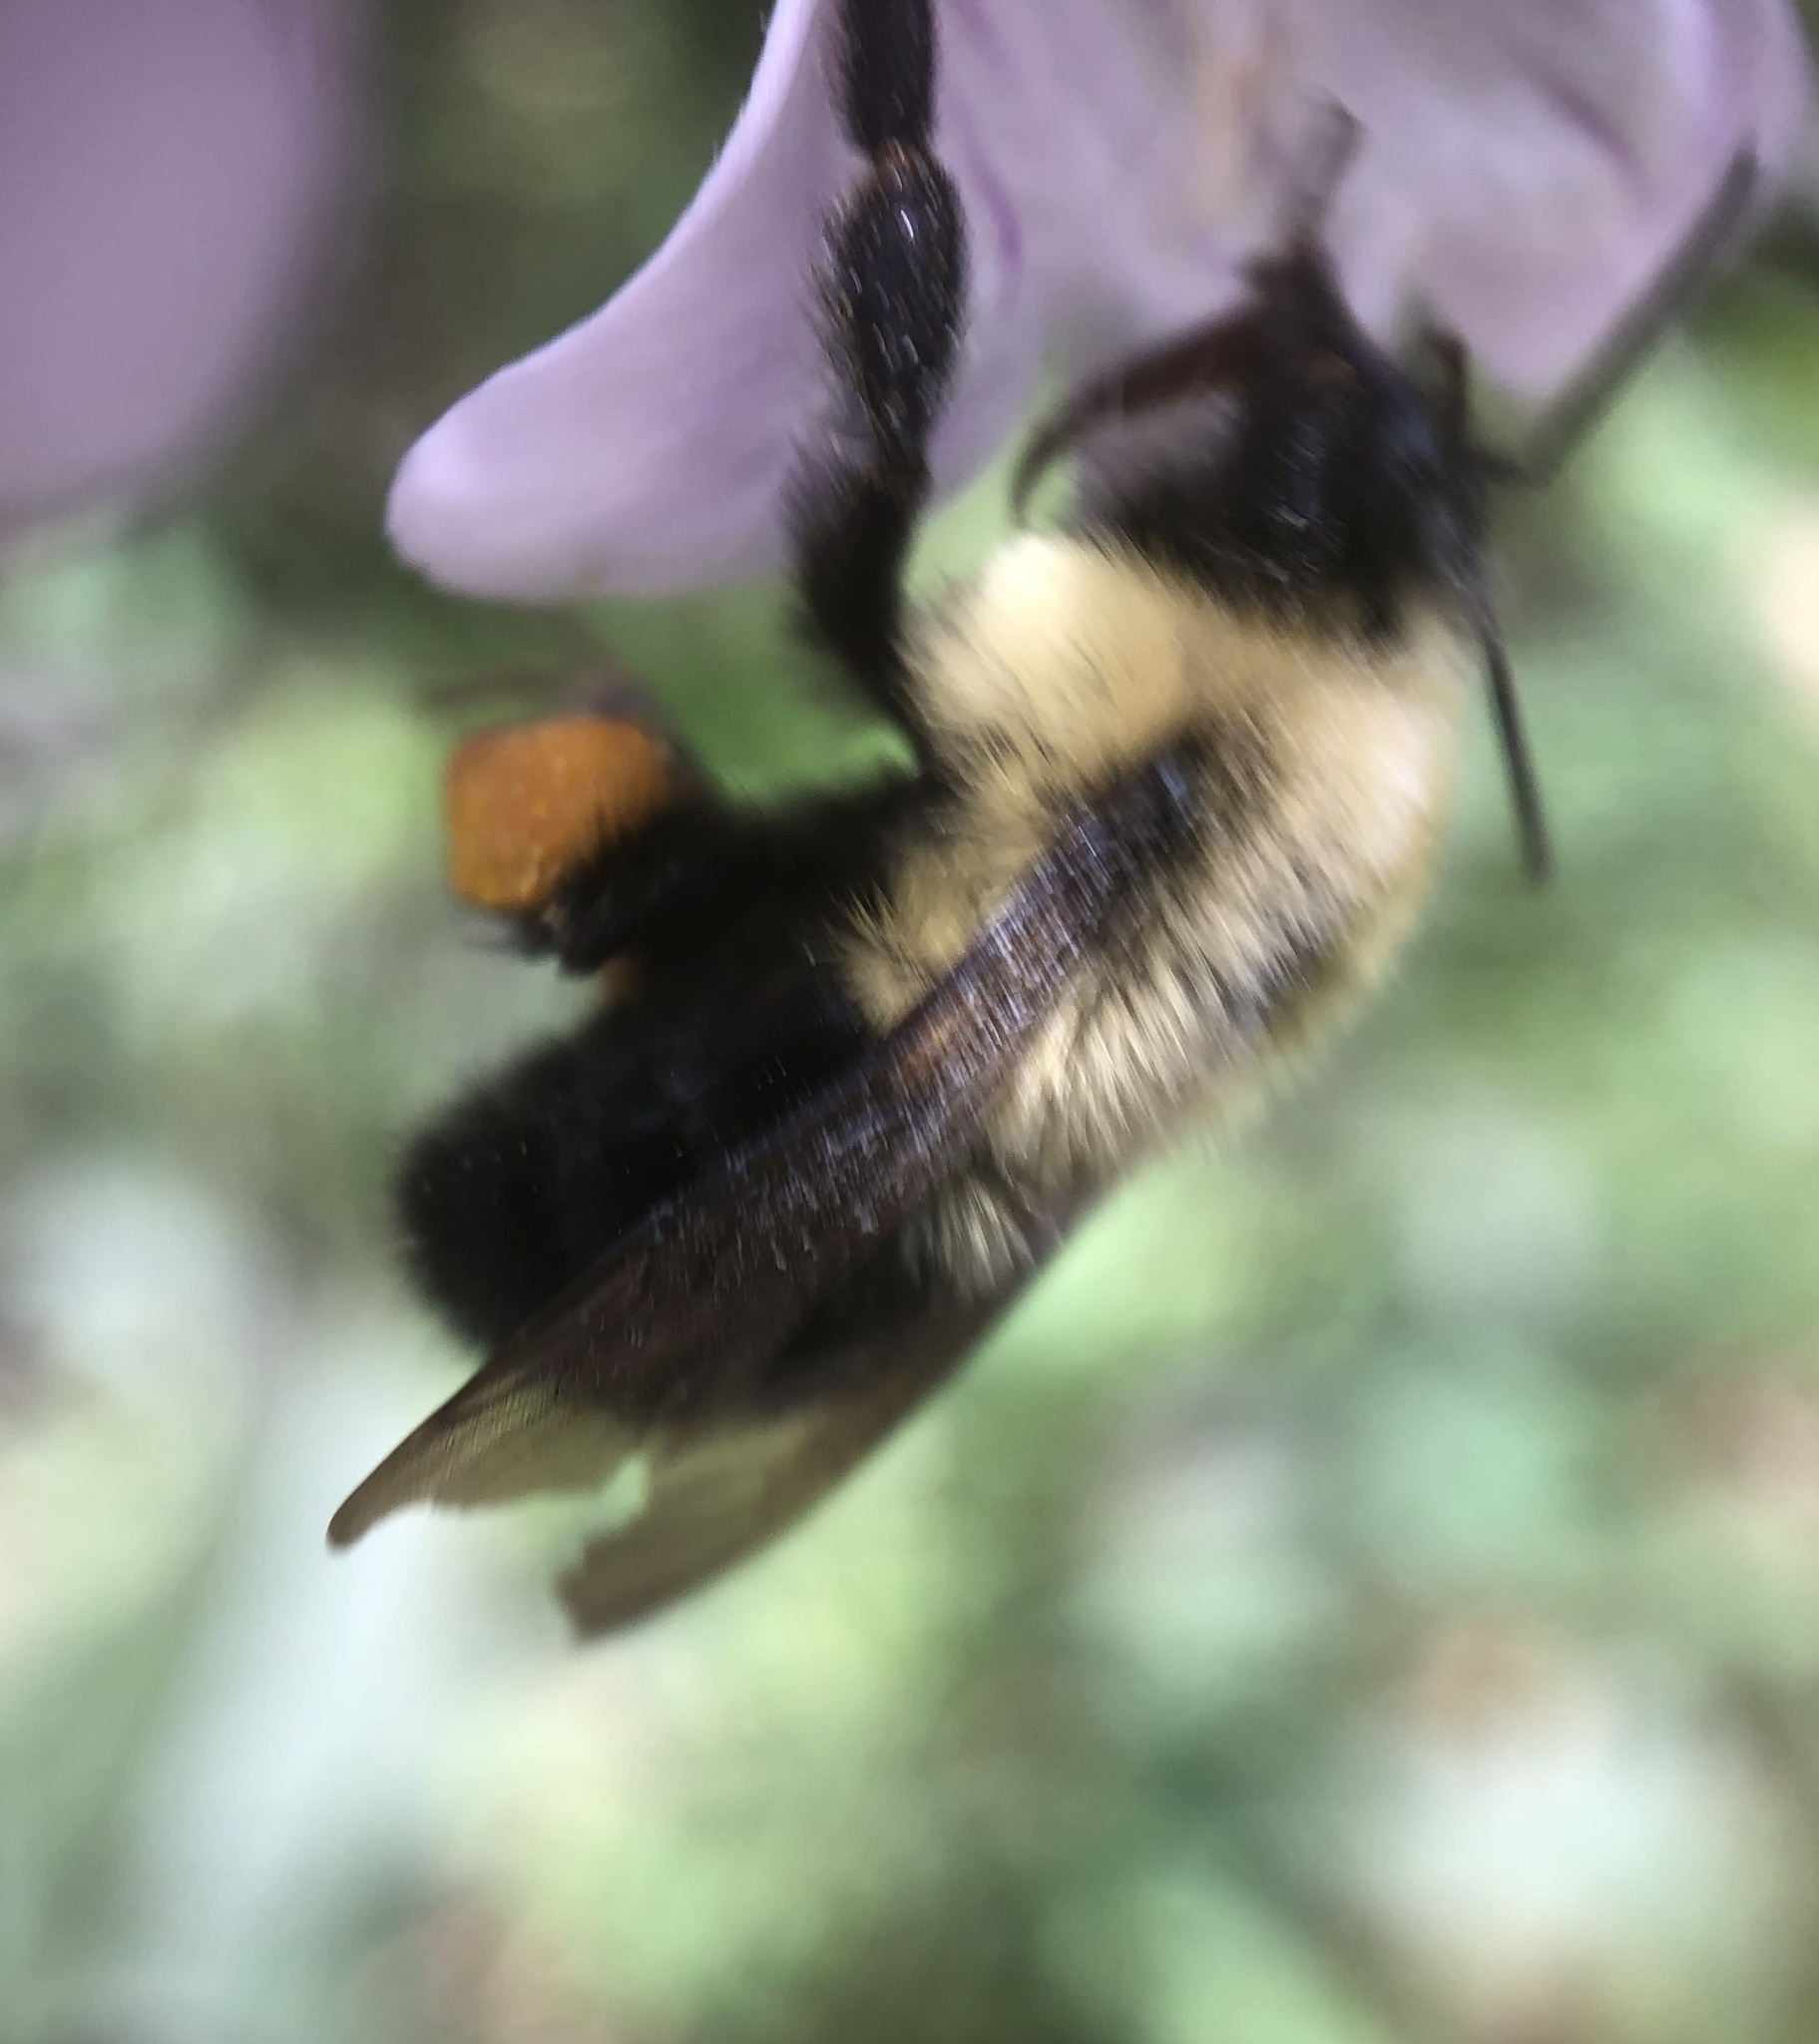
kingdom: Animalia
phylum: Arthropoda
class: Insecta
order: Hymenoptera
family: Apidae
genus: Bombus
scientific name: Bombus bimaculatus
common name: Two-spotted bumble bee
